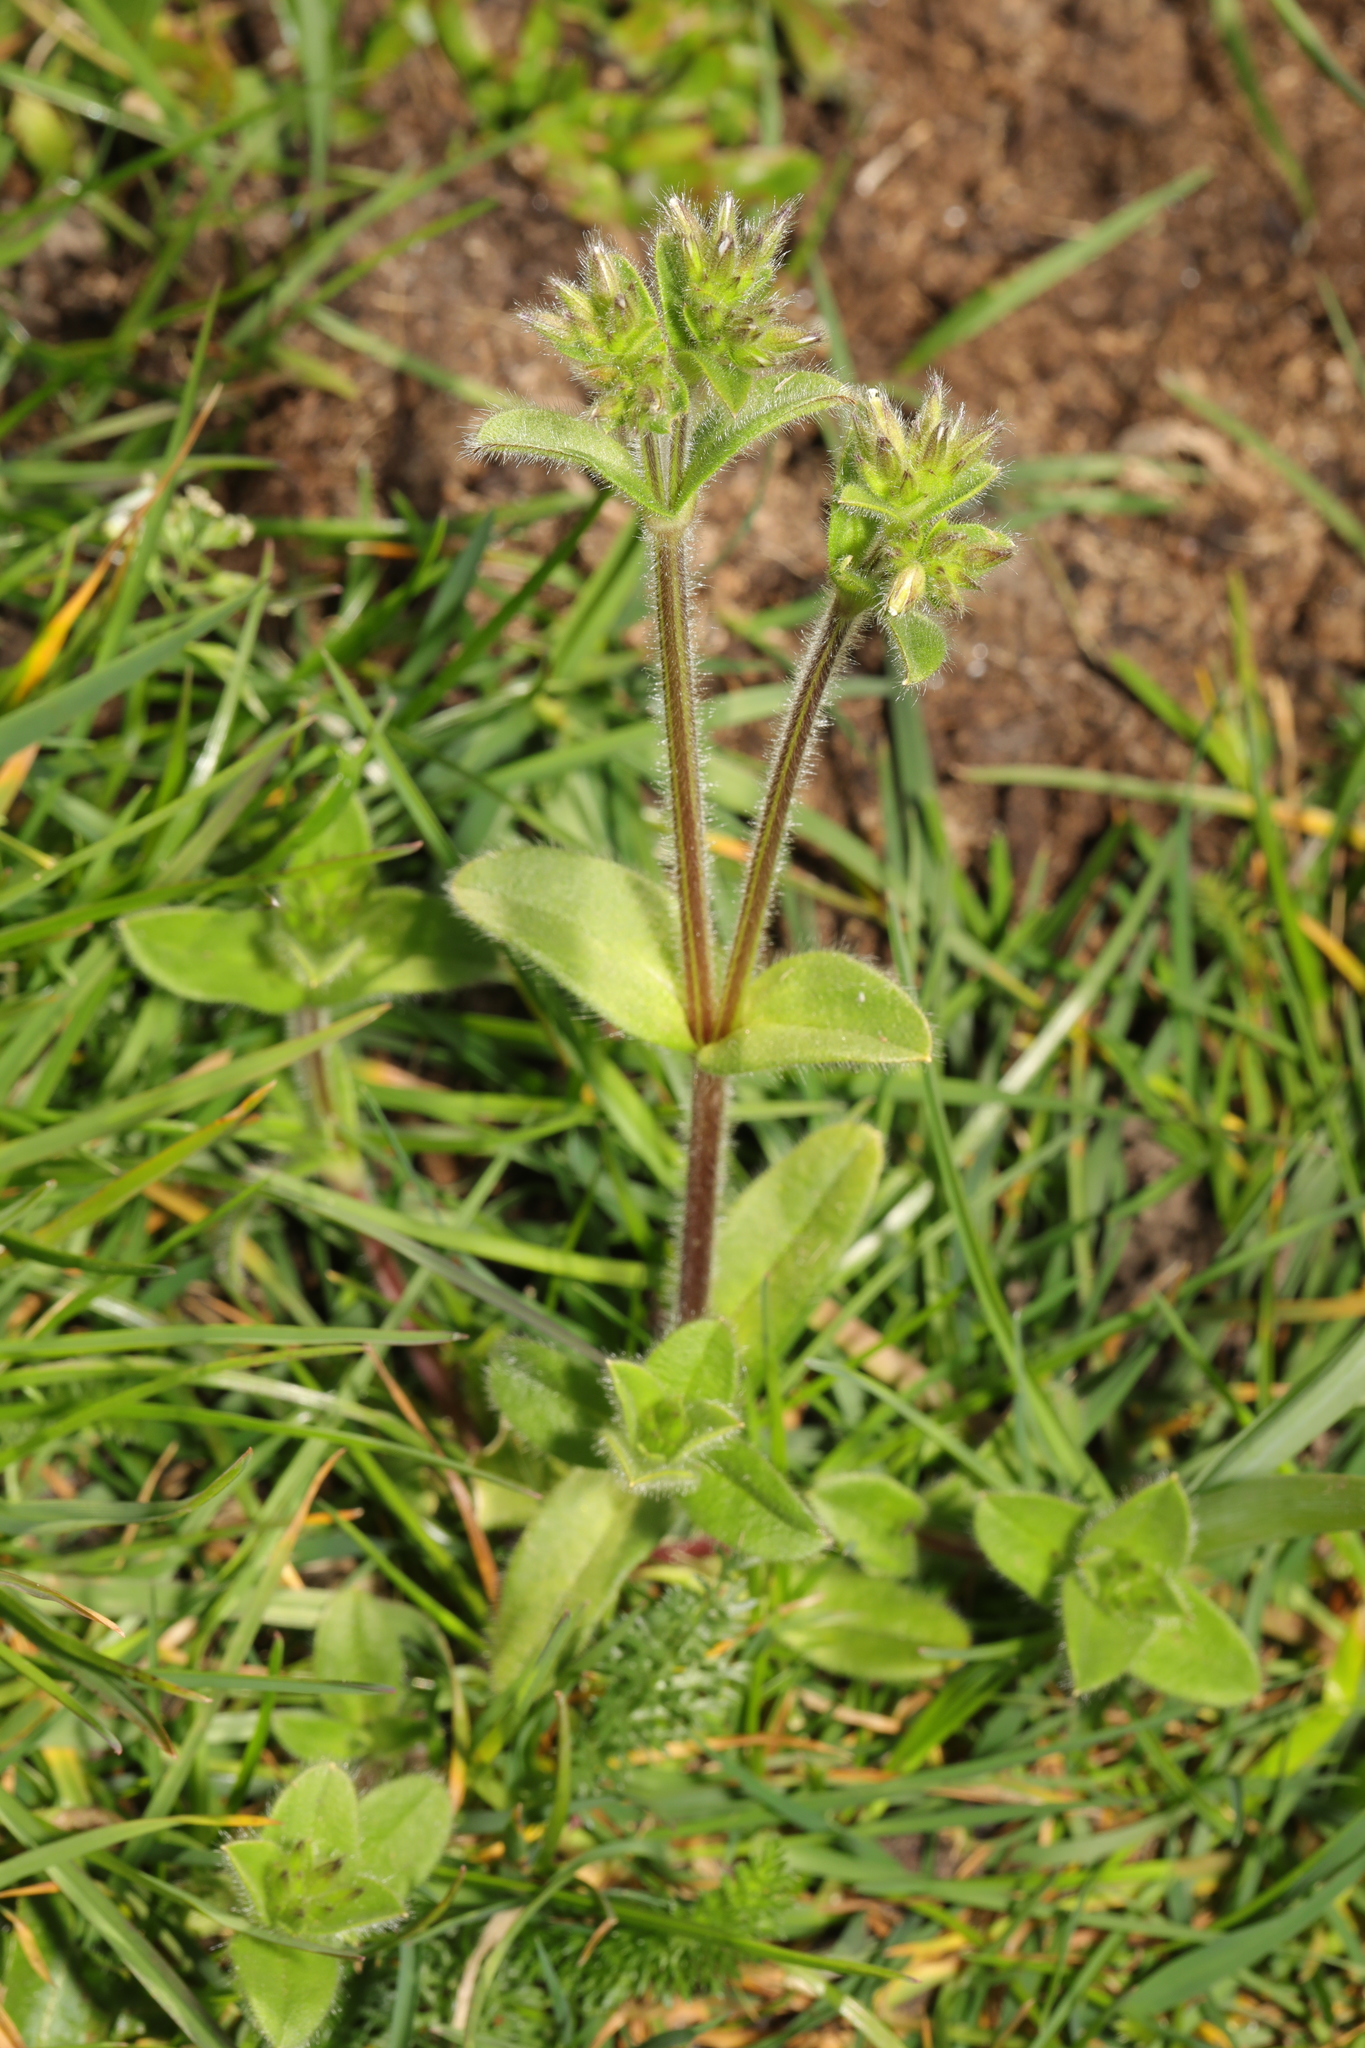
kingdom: Plantae
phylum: Tracheophyta
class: Magnoliopsida
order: Caryophyllales
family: Caryophyllaceae
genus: Cerastium
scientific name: Cerastium glomeratum
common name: Sticky chickweed
